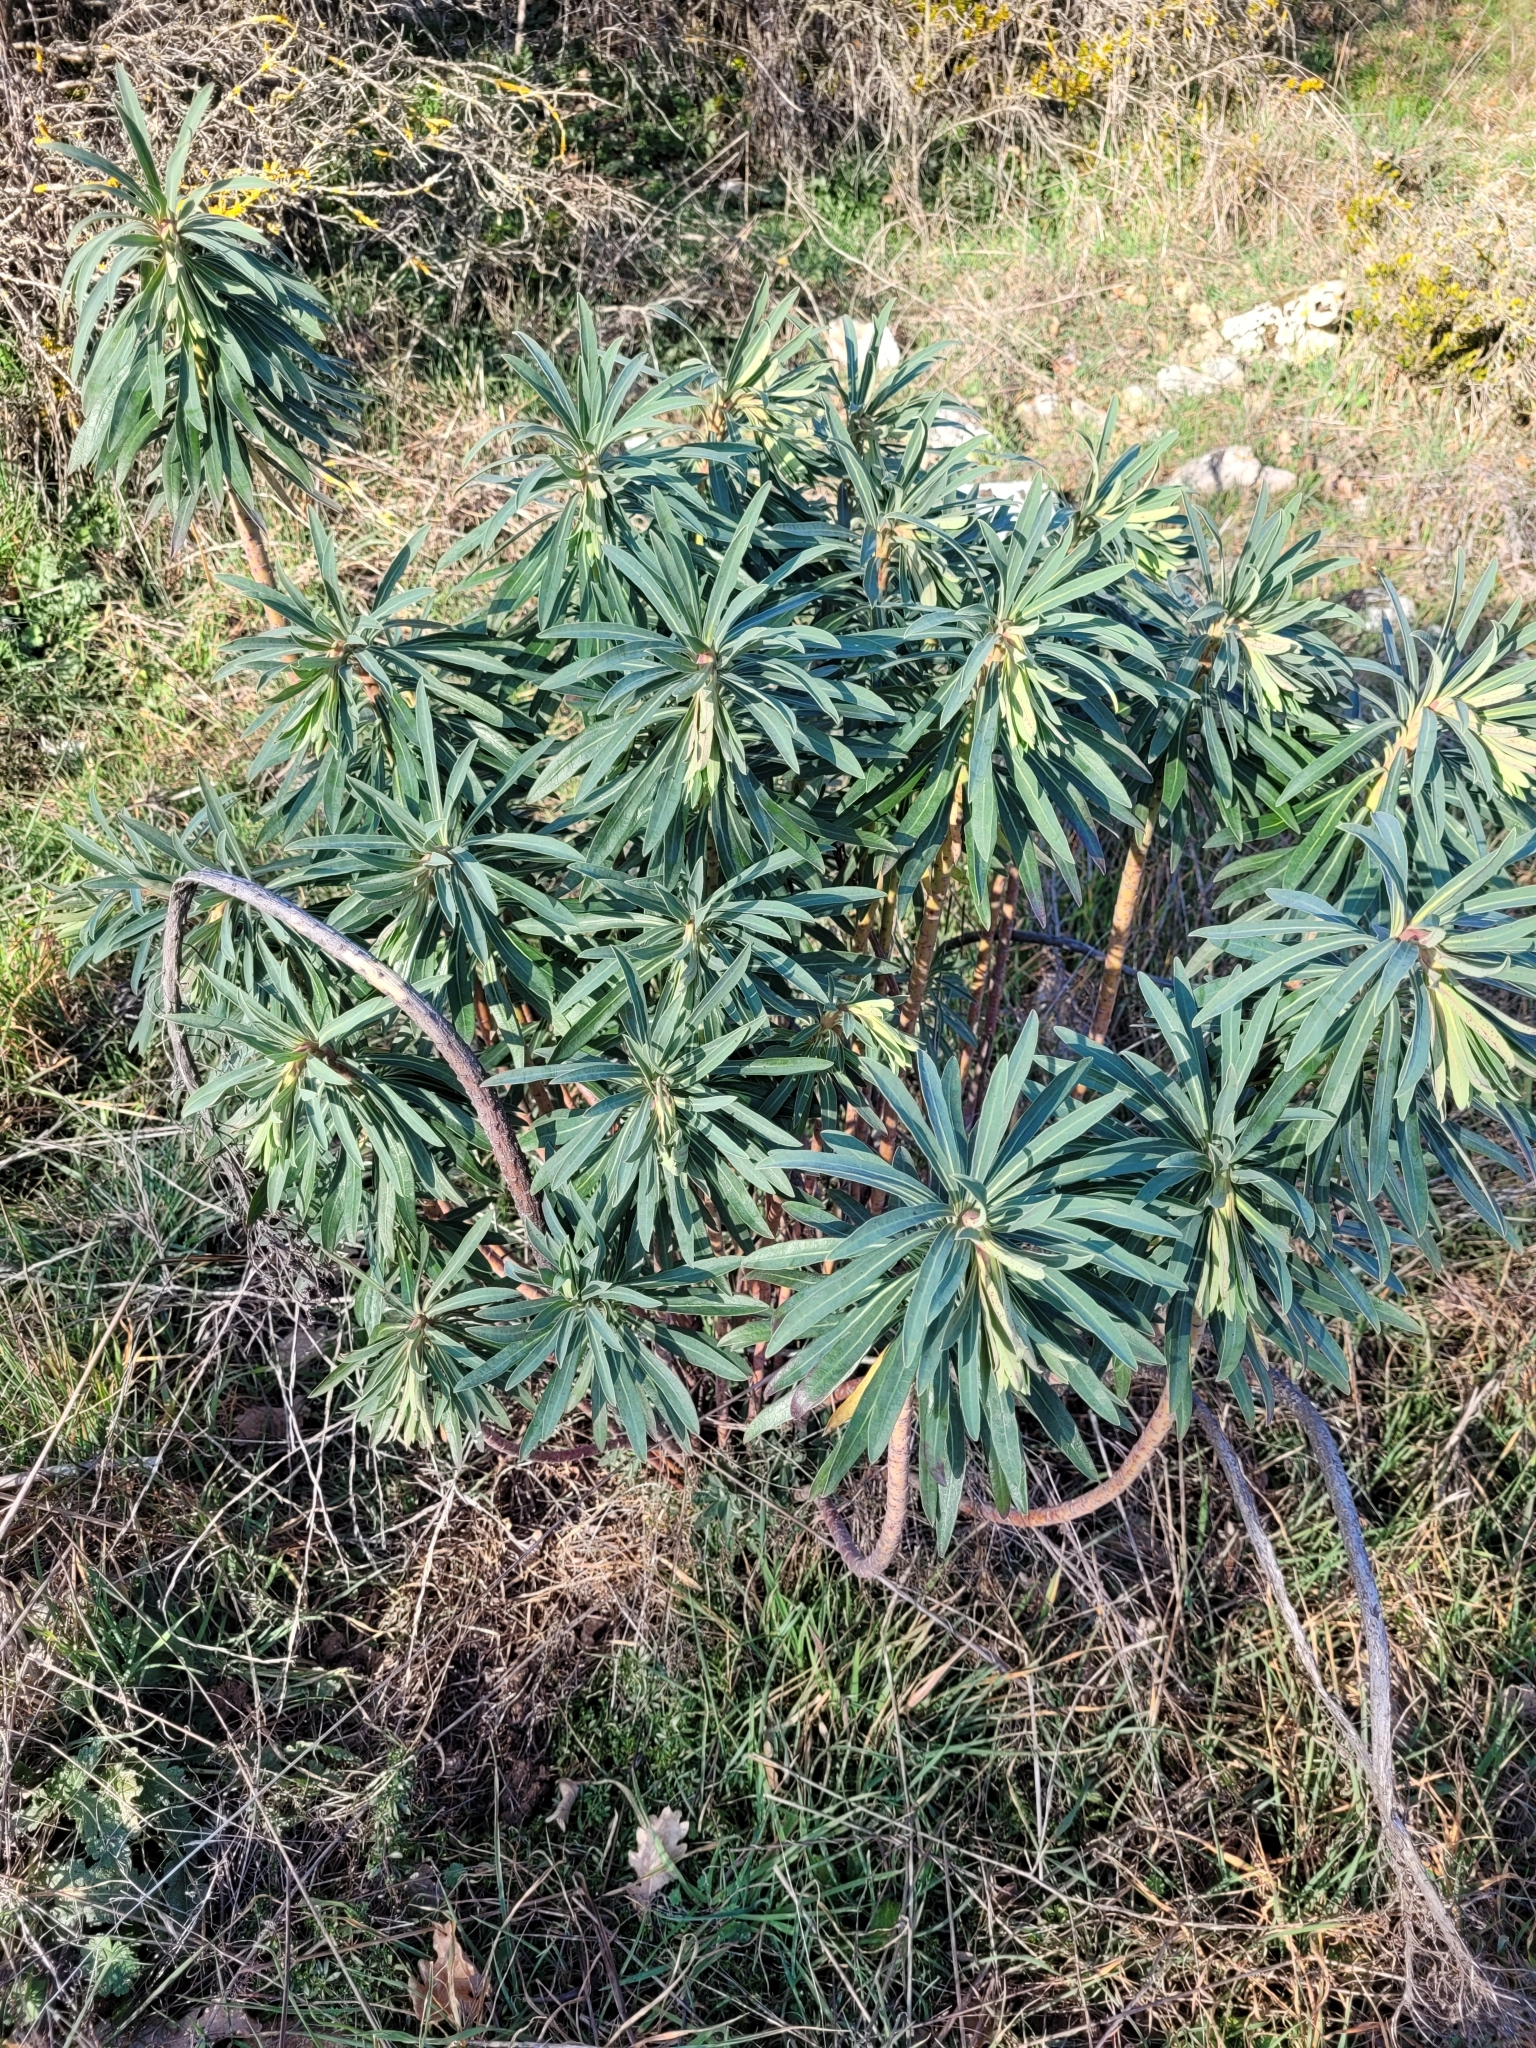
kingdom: Plantae
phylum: Tracheophyta
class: Magnoliopsida
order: Malpighiales
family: Euphorbiaceae
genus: Euphorbia
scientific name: Euphorbia characias
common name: Mediterranean spurge
